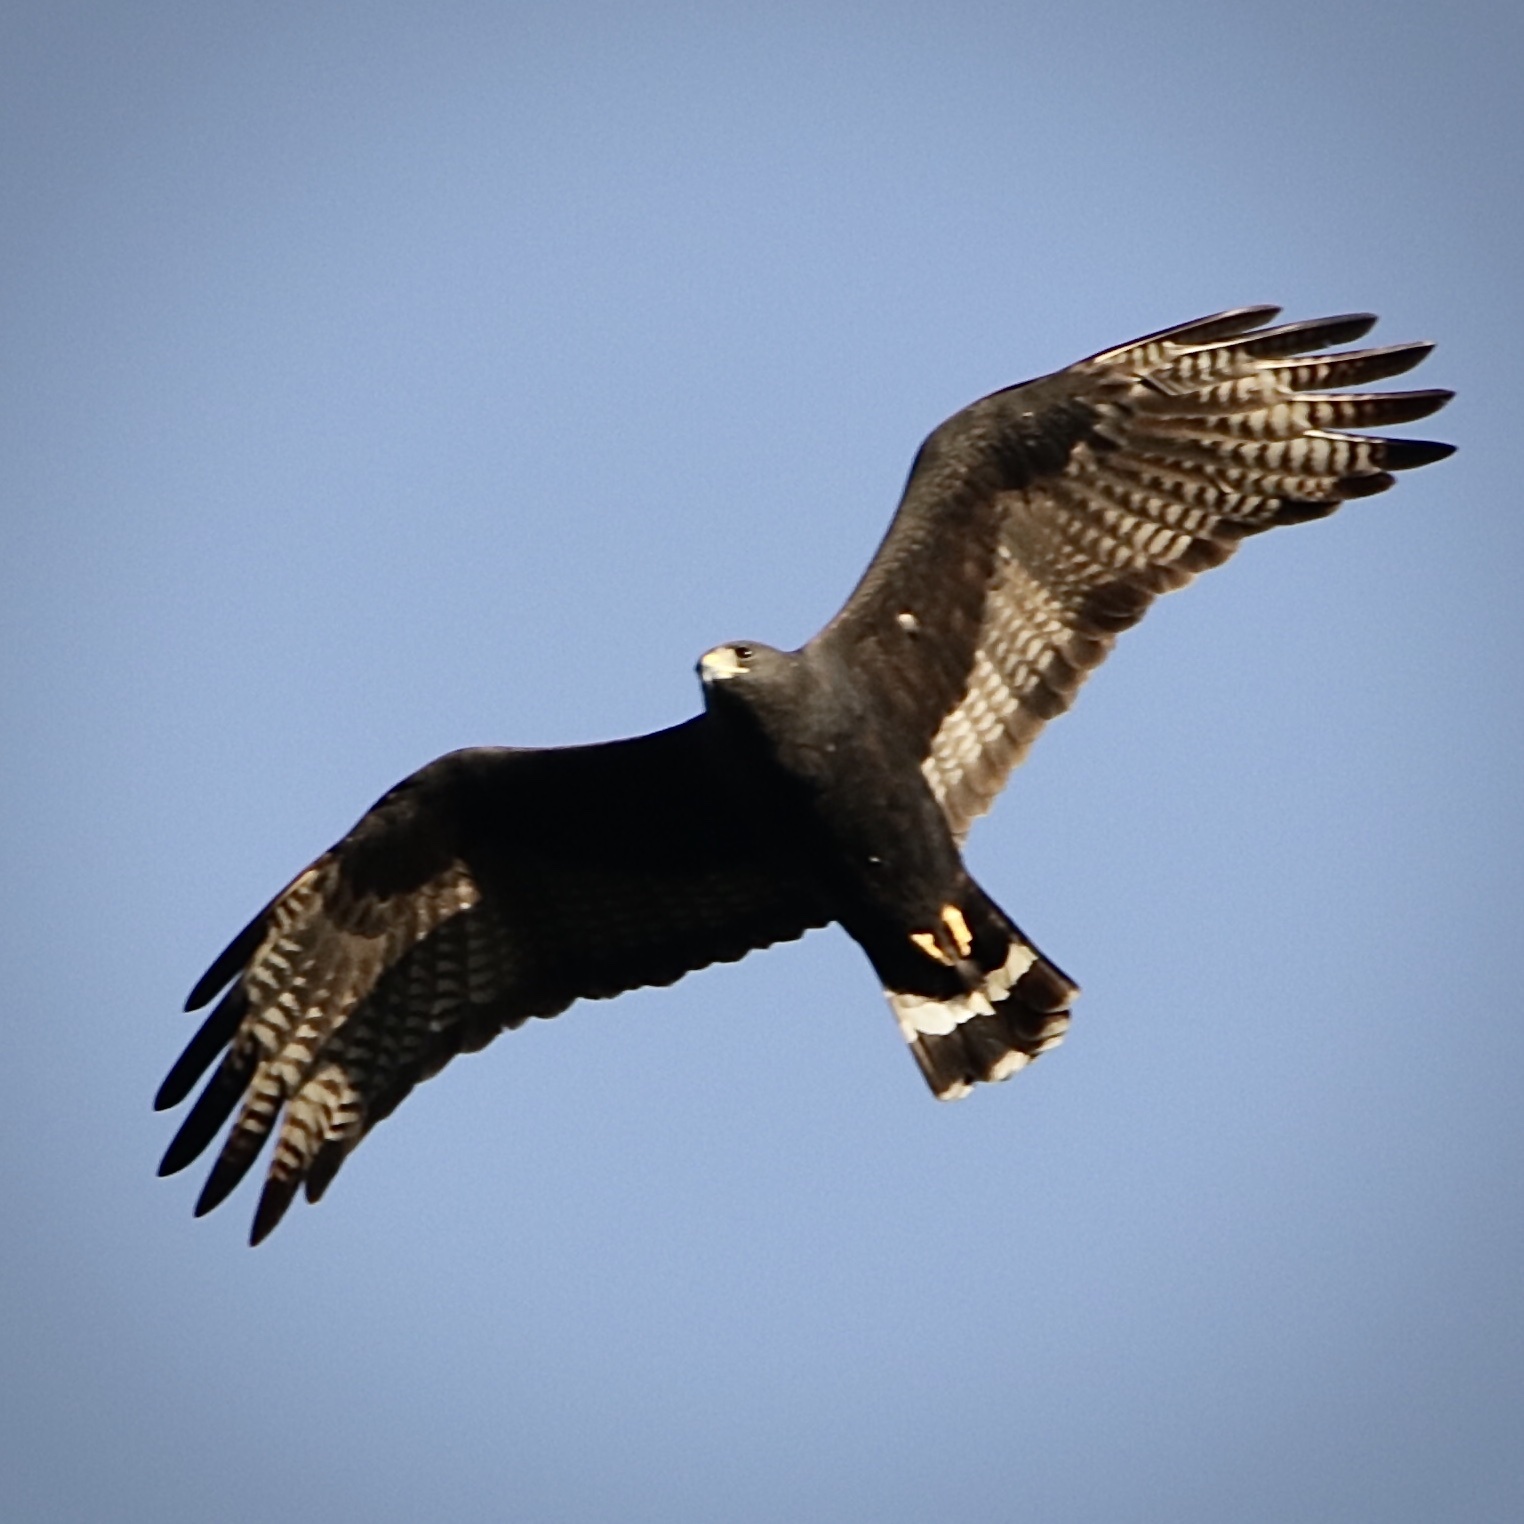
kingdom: Animalia
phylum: Chordata
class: Aves
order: Accipitriformes
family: Accipitridae
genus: Buteo
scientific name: Buteo albonotatus
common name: Zone-tailed hawk
